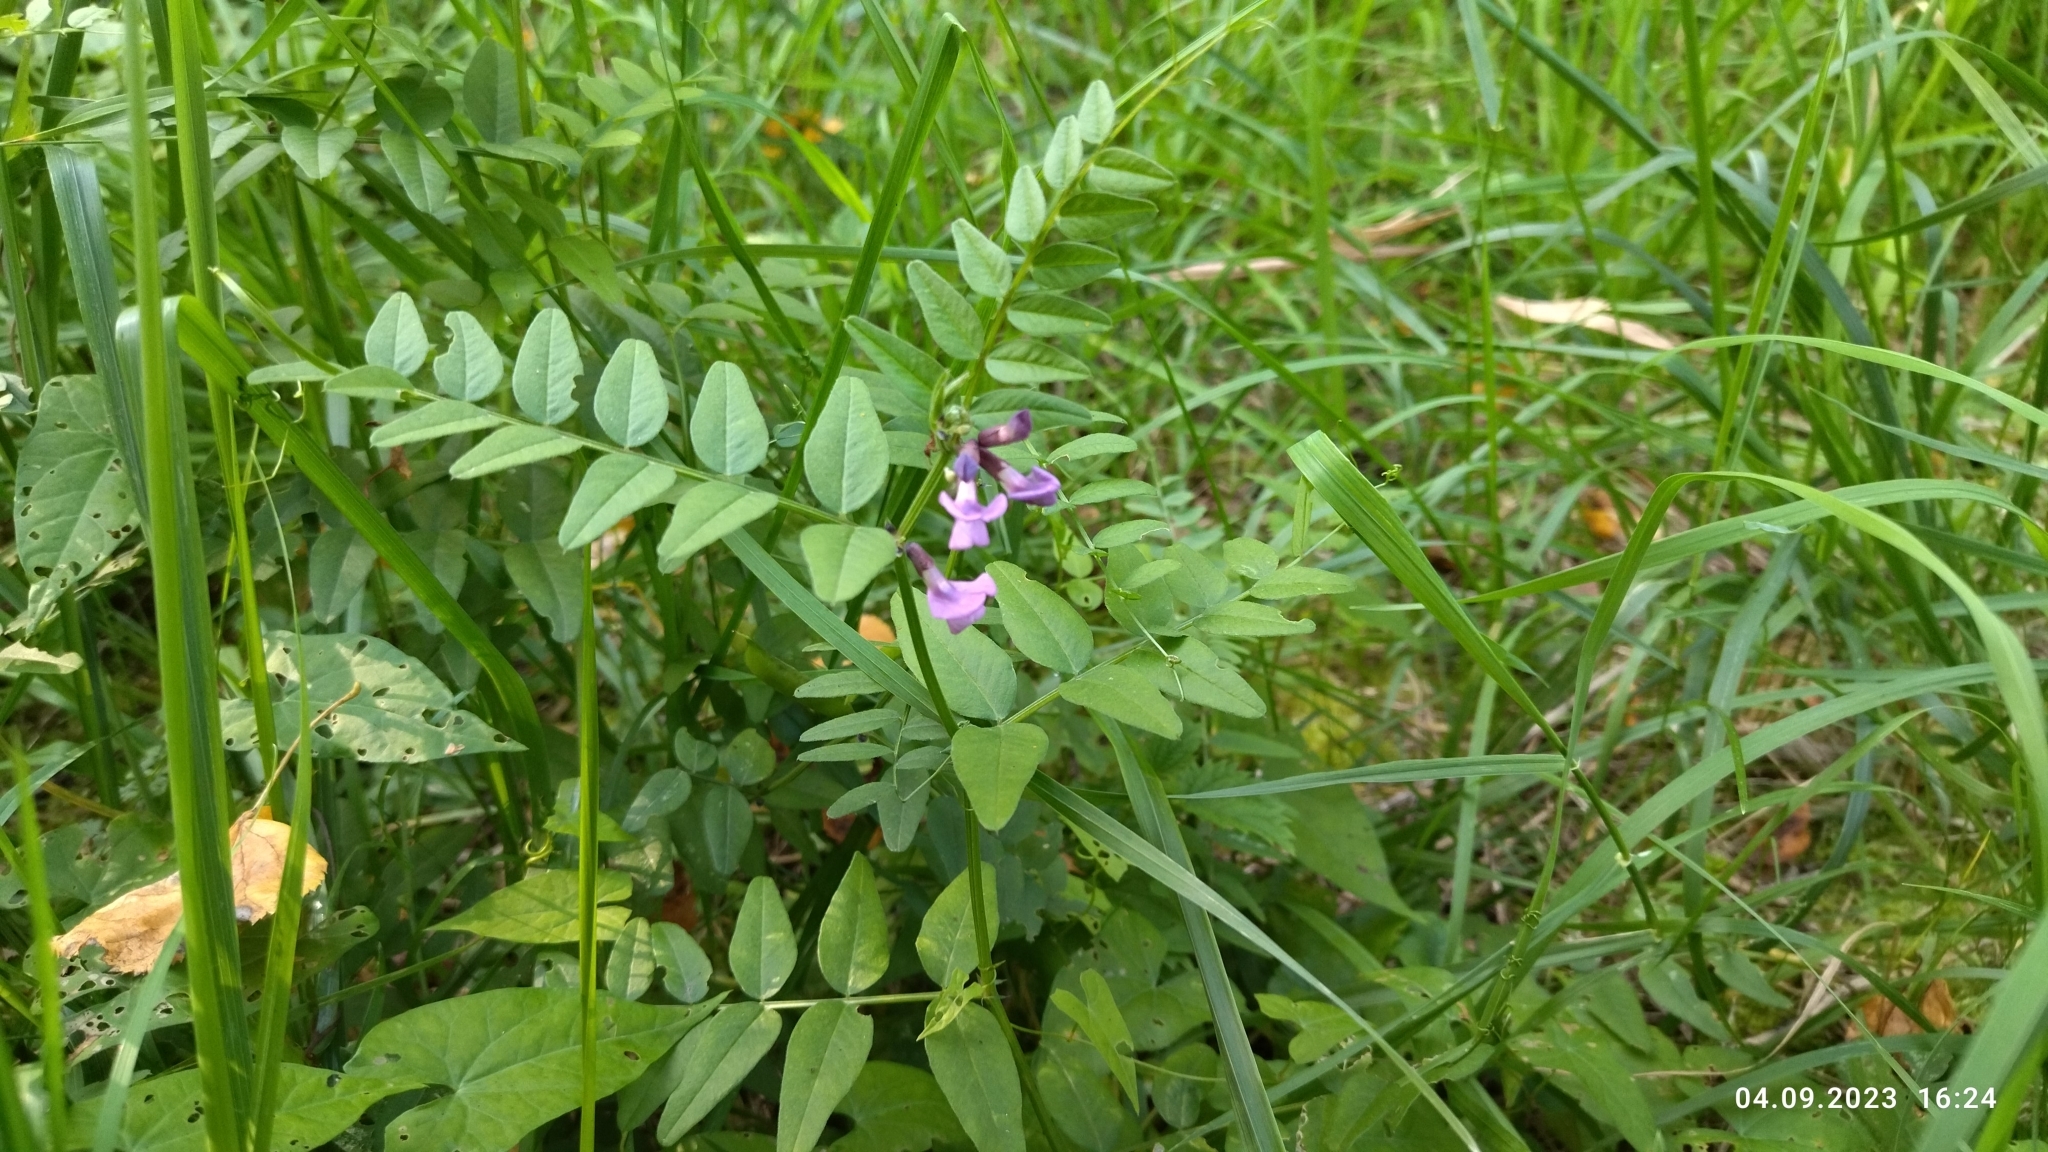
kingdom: Plantae
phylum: Tracheophyta
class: Magnoliopsida
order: Fabales
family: Fabaceae
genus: Vicia
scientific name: Vicia sepium
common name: Bush vetch
